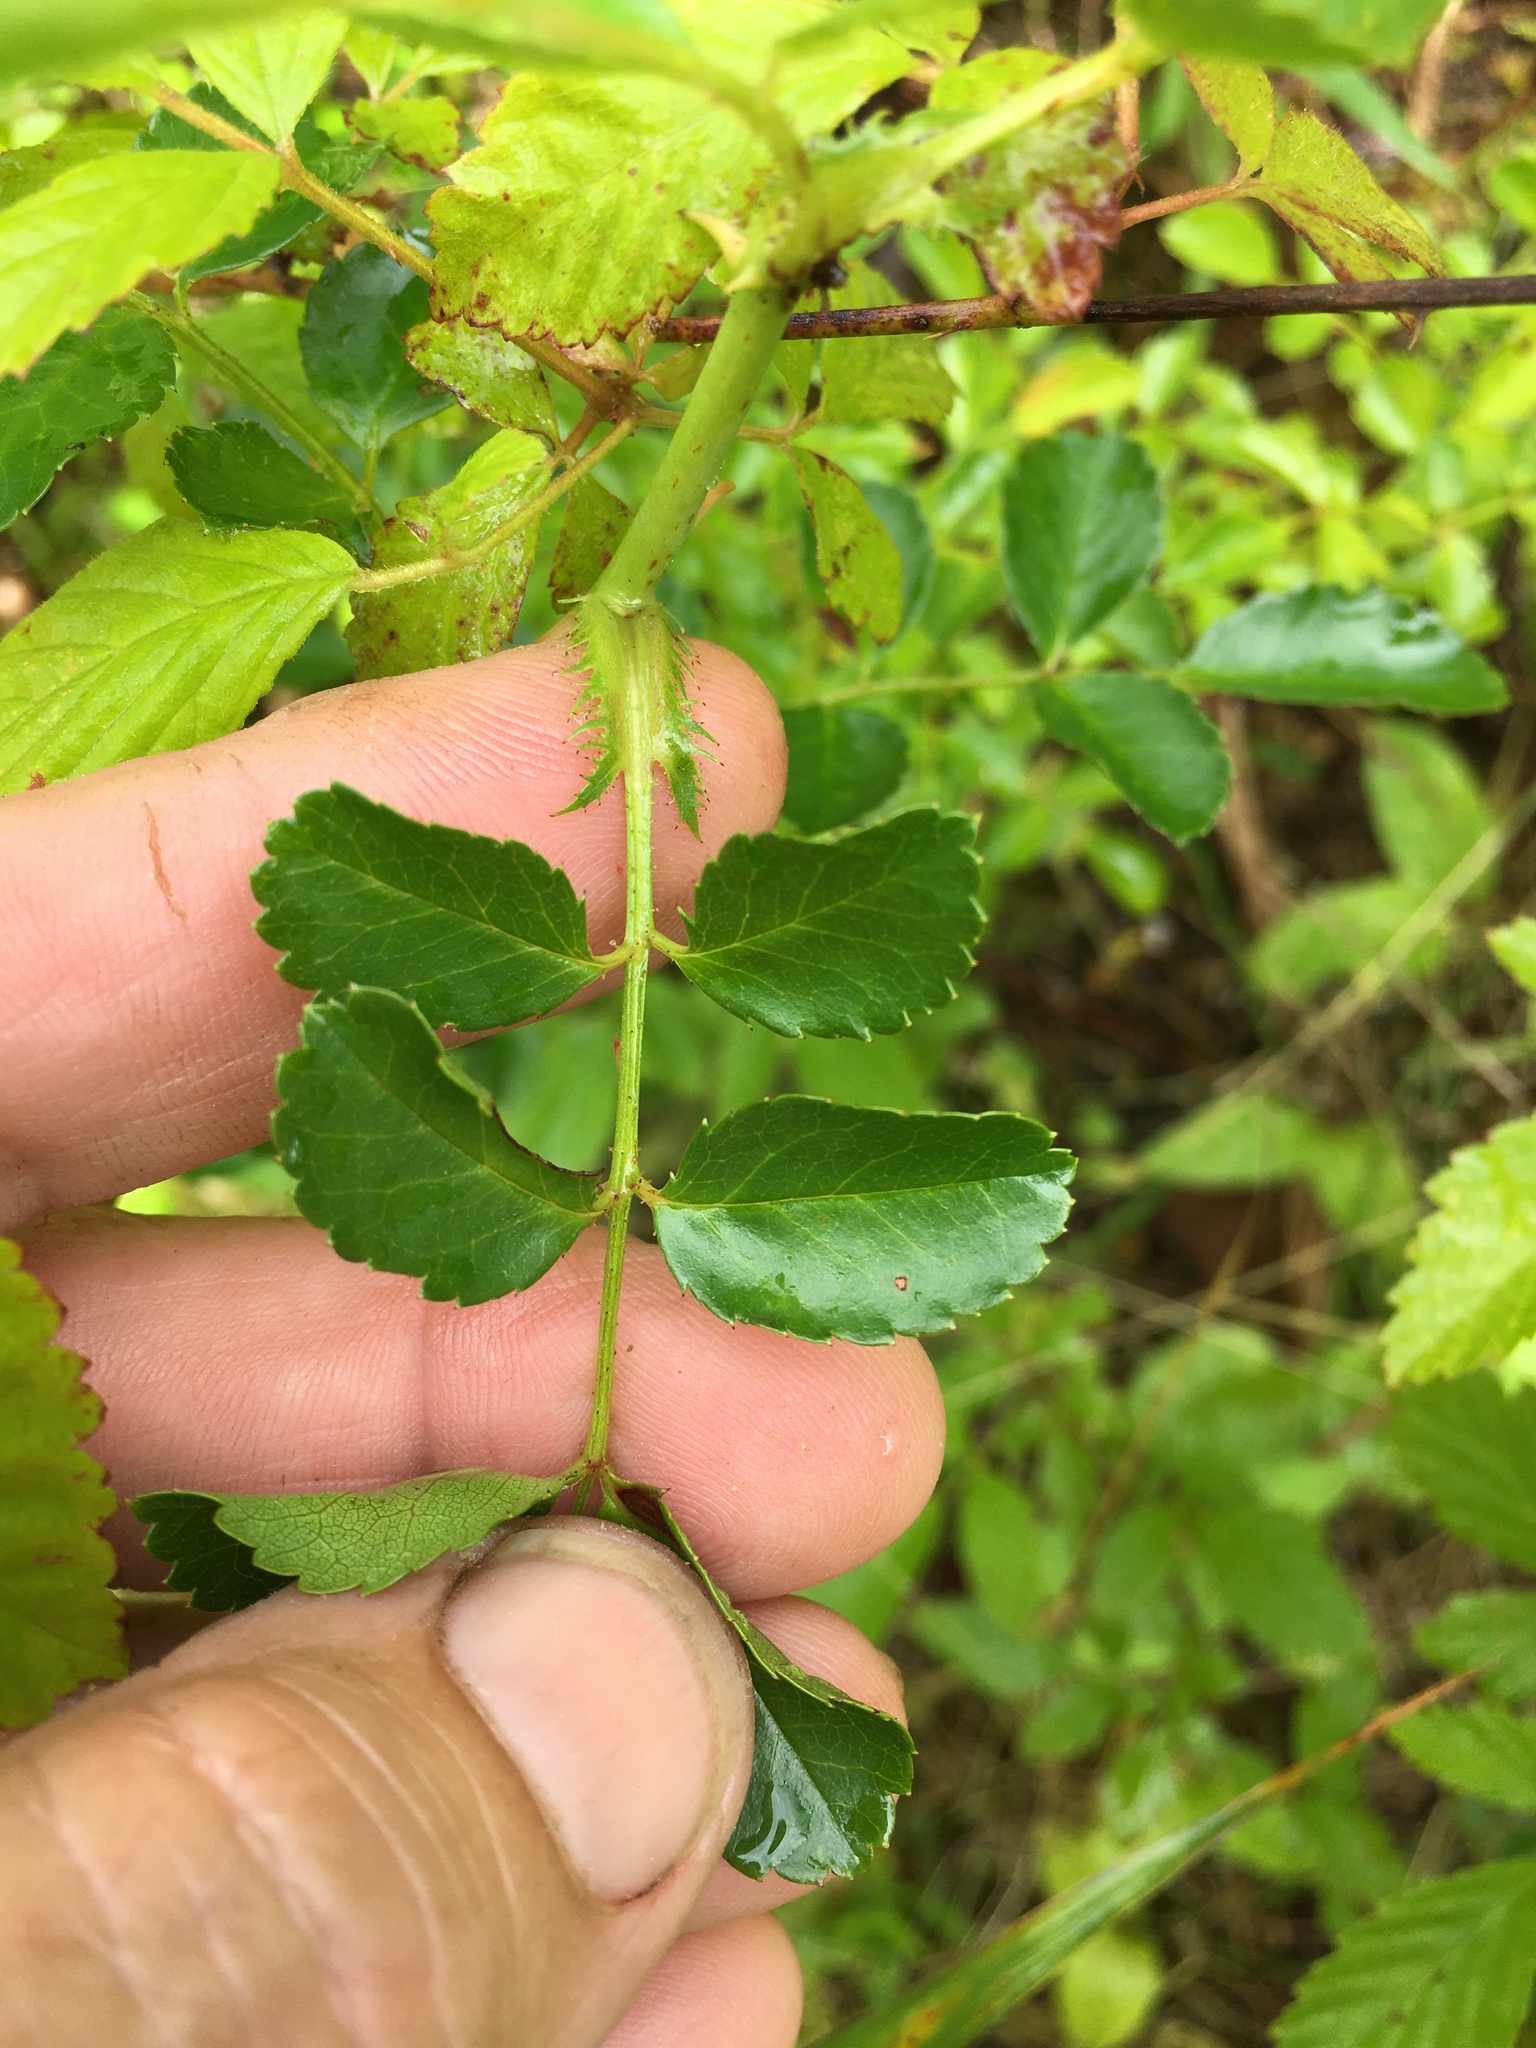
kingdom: Plantae
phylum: Tracheophyta
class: Magnoliopsida
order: Rosales
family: Rosaceae
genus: Rosa
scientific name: Rosa lucieae
